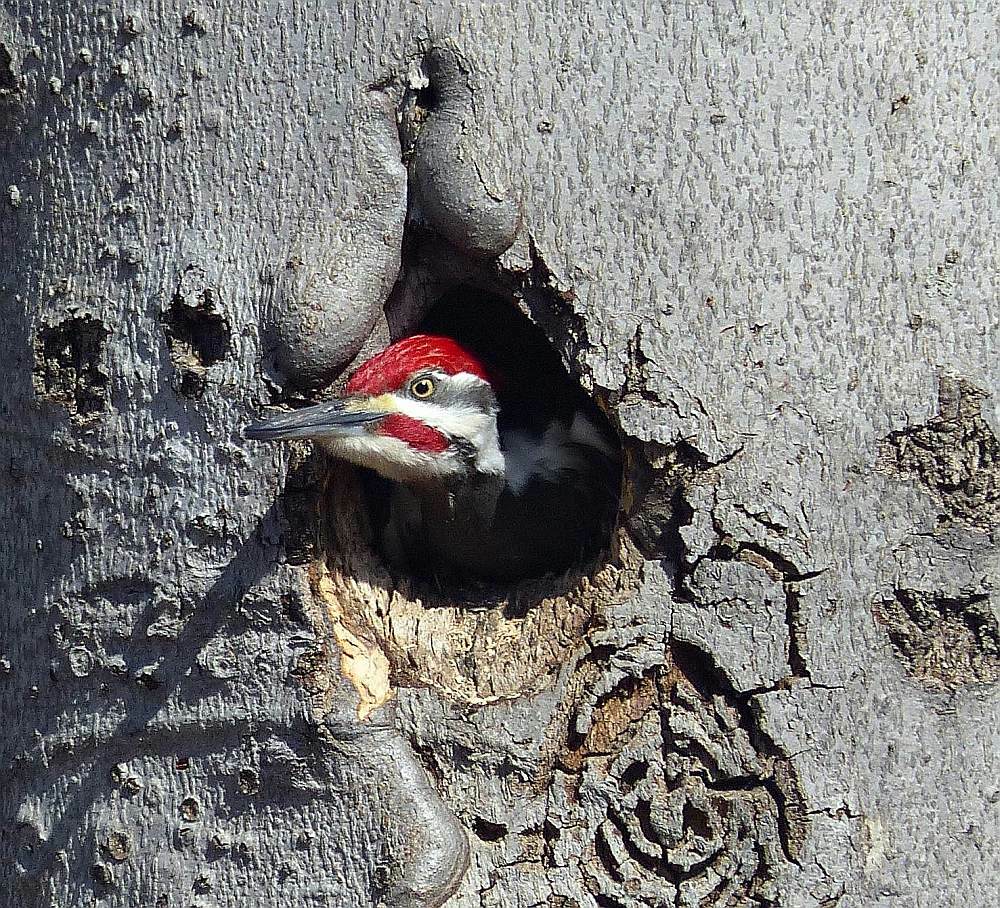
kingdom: Animalia
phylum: Chordata
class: Aves
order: Piciformes
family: Picidae
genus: Dryocopus
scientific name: Dryocopus pileatus
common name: Pileated woodpecker
